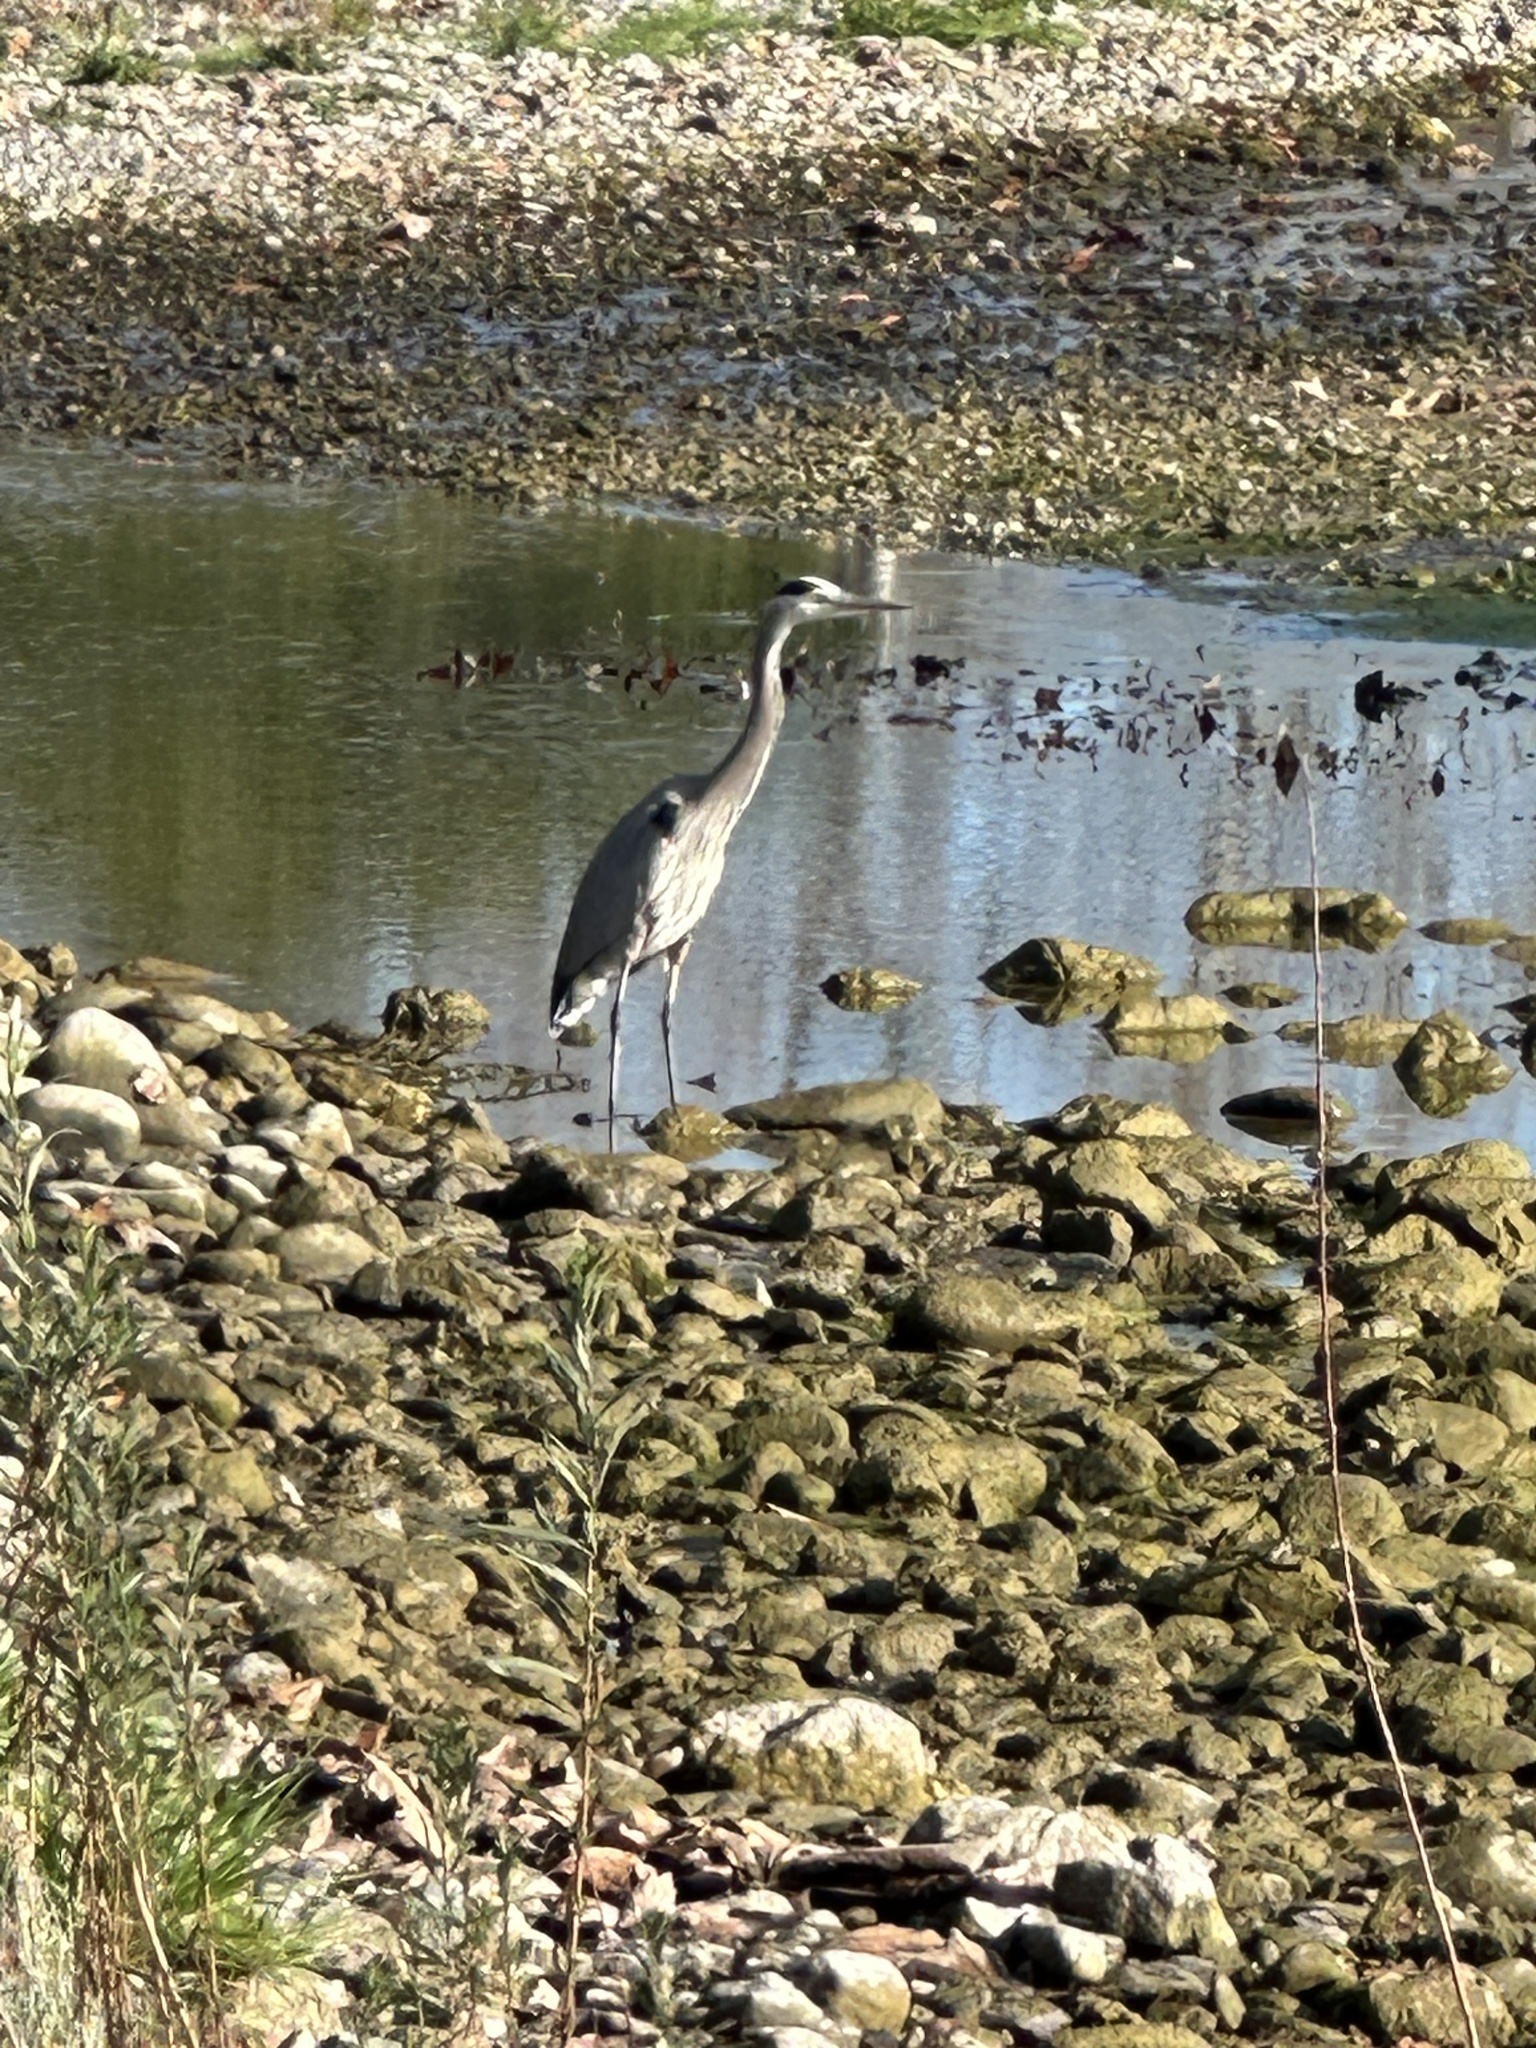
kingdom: Animalia
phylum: Chordata
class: Aves
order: Pelecaniformes
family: Ardeidae
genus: Ardea
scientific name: Ardea herodias
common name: Great blue heron
